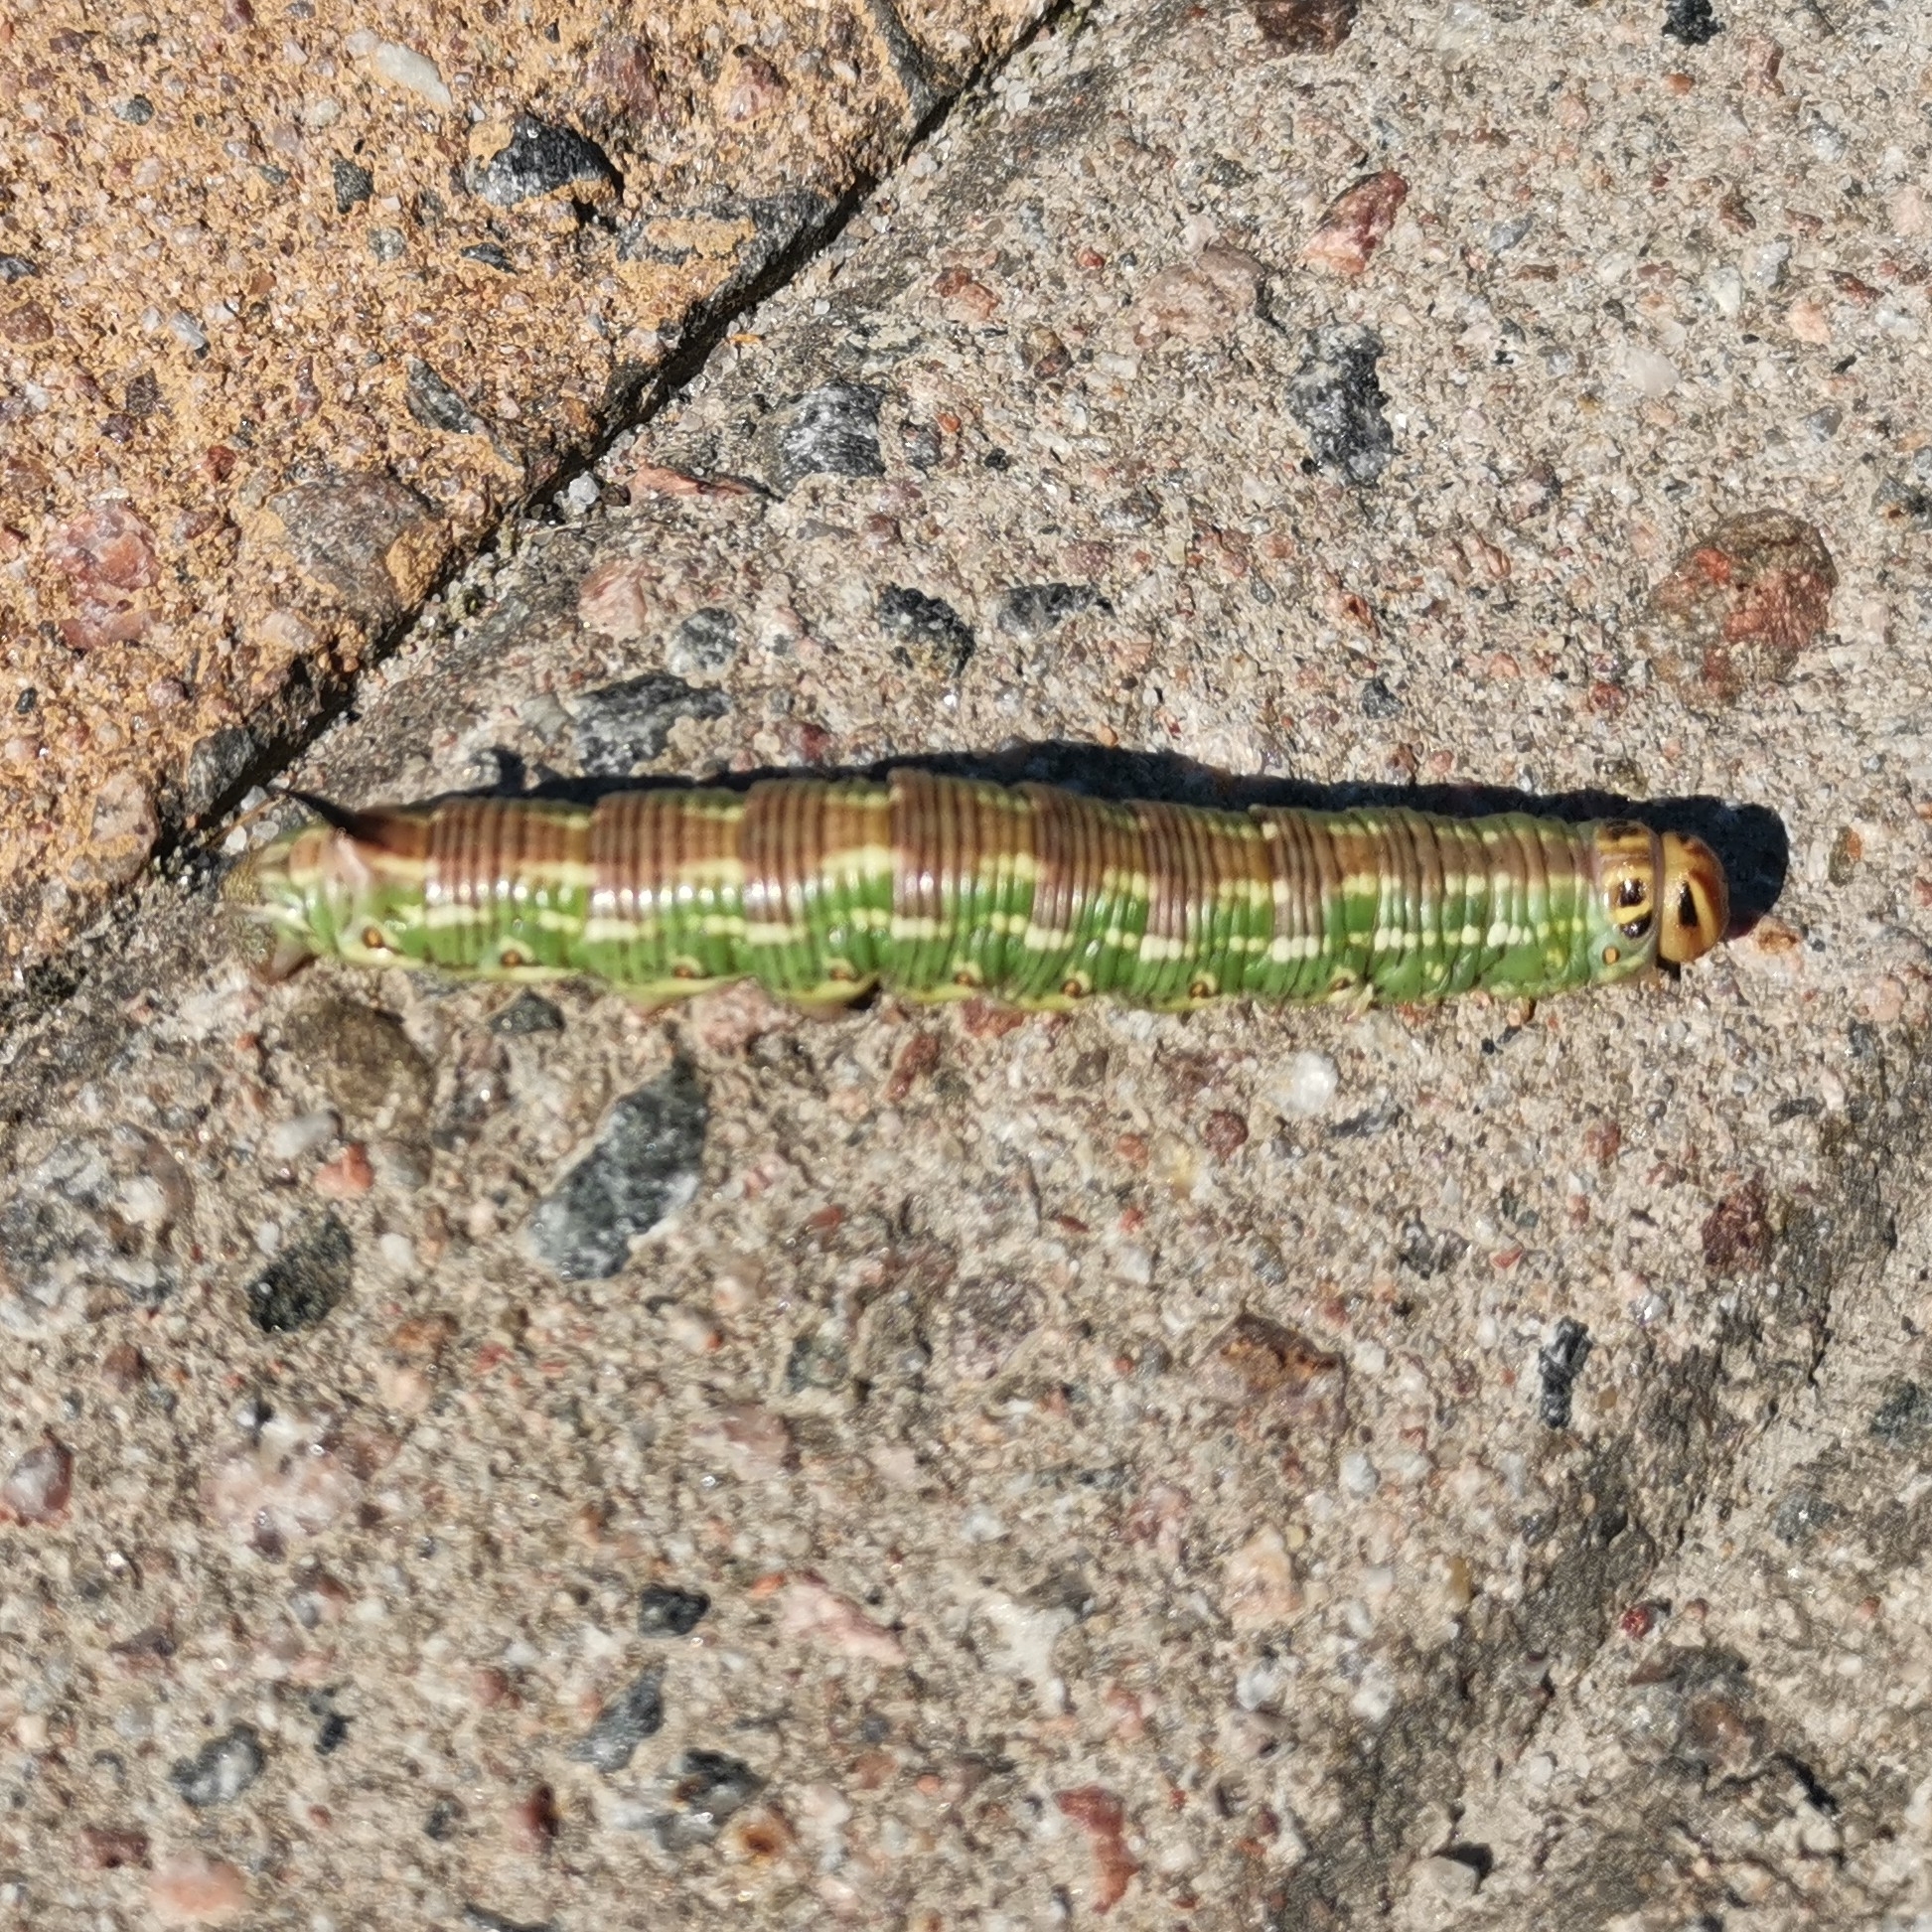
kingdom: Animalia
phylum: Arthropoda
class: Insecta
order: Lepidoptera
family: Sphingidae
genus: Sphinx
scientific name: Sphinx pinastri
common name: Pine hawk-moth
